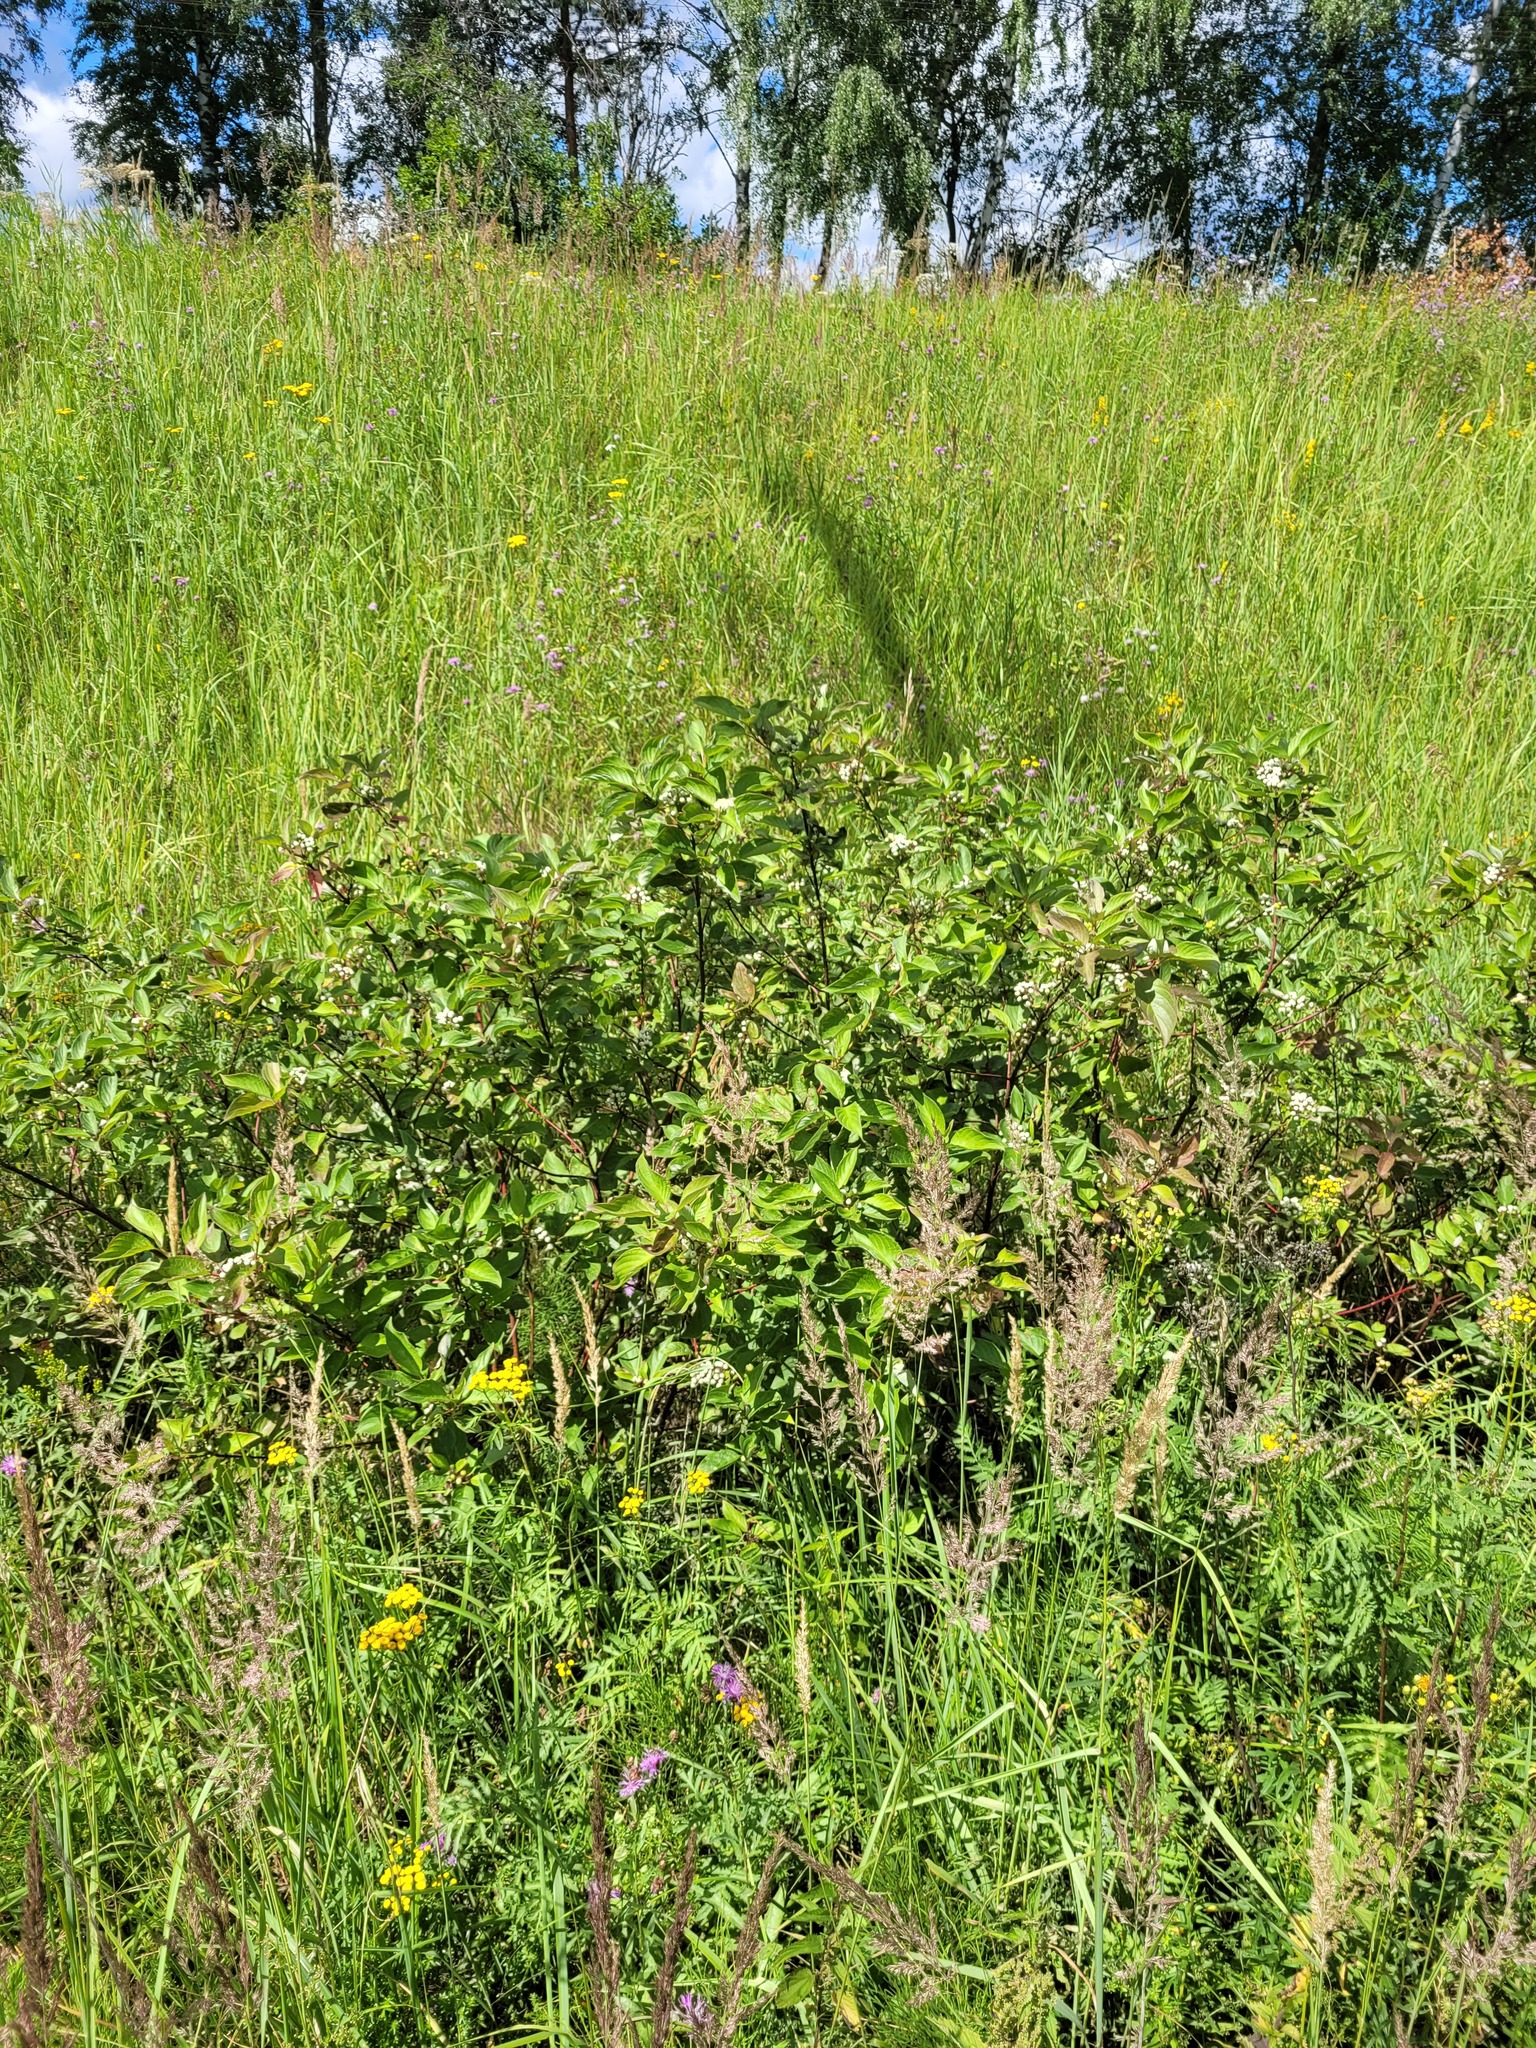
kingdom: Plantae
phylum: Tracheophyta
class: Magnoliopsida
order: Cornales
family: Cornaceae
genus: Cornus
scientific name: Cornus alba
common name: White dogwood
